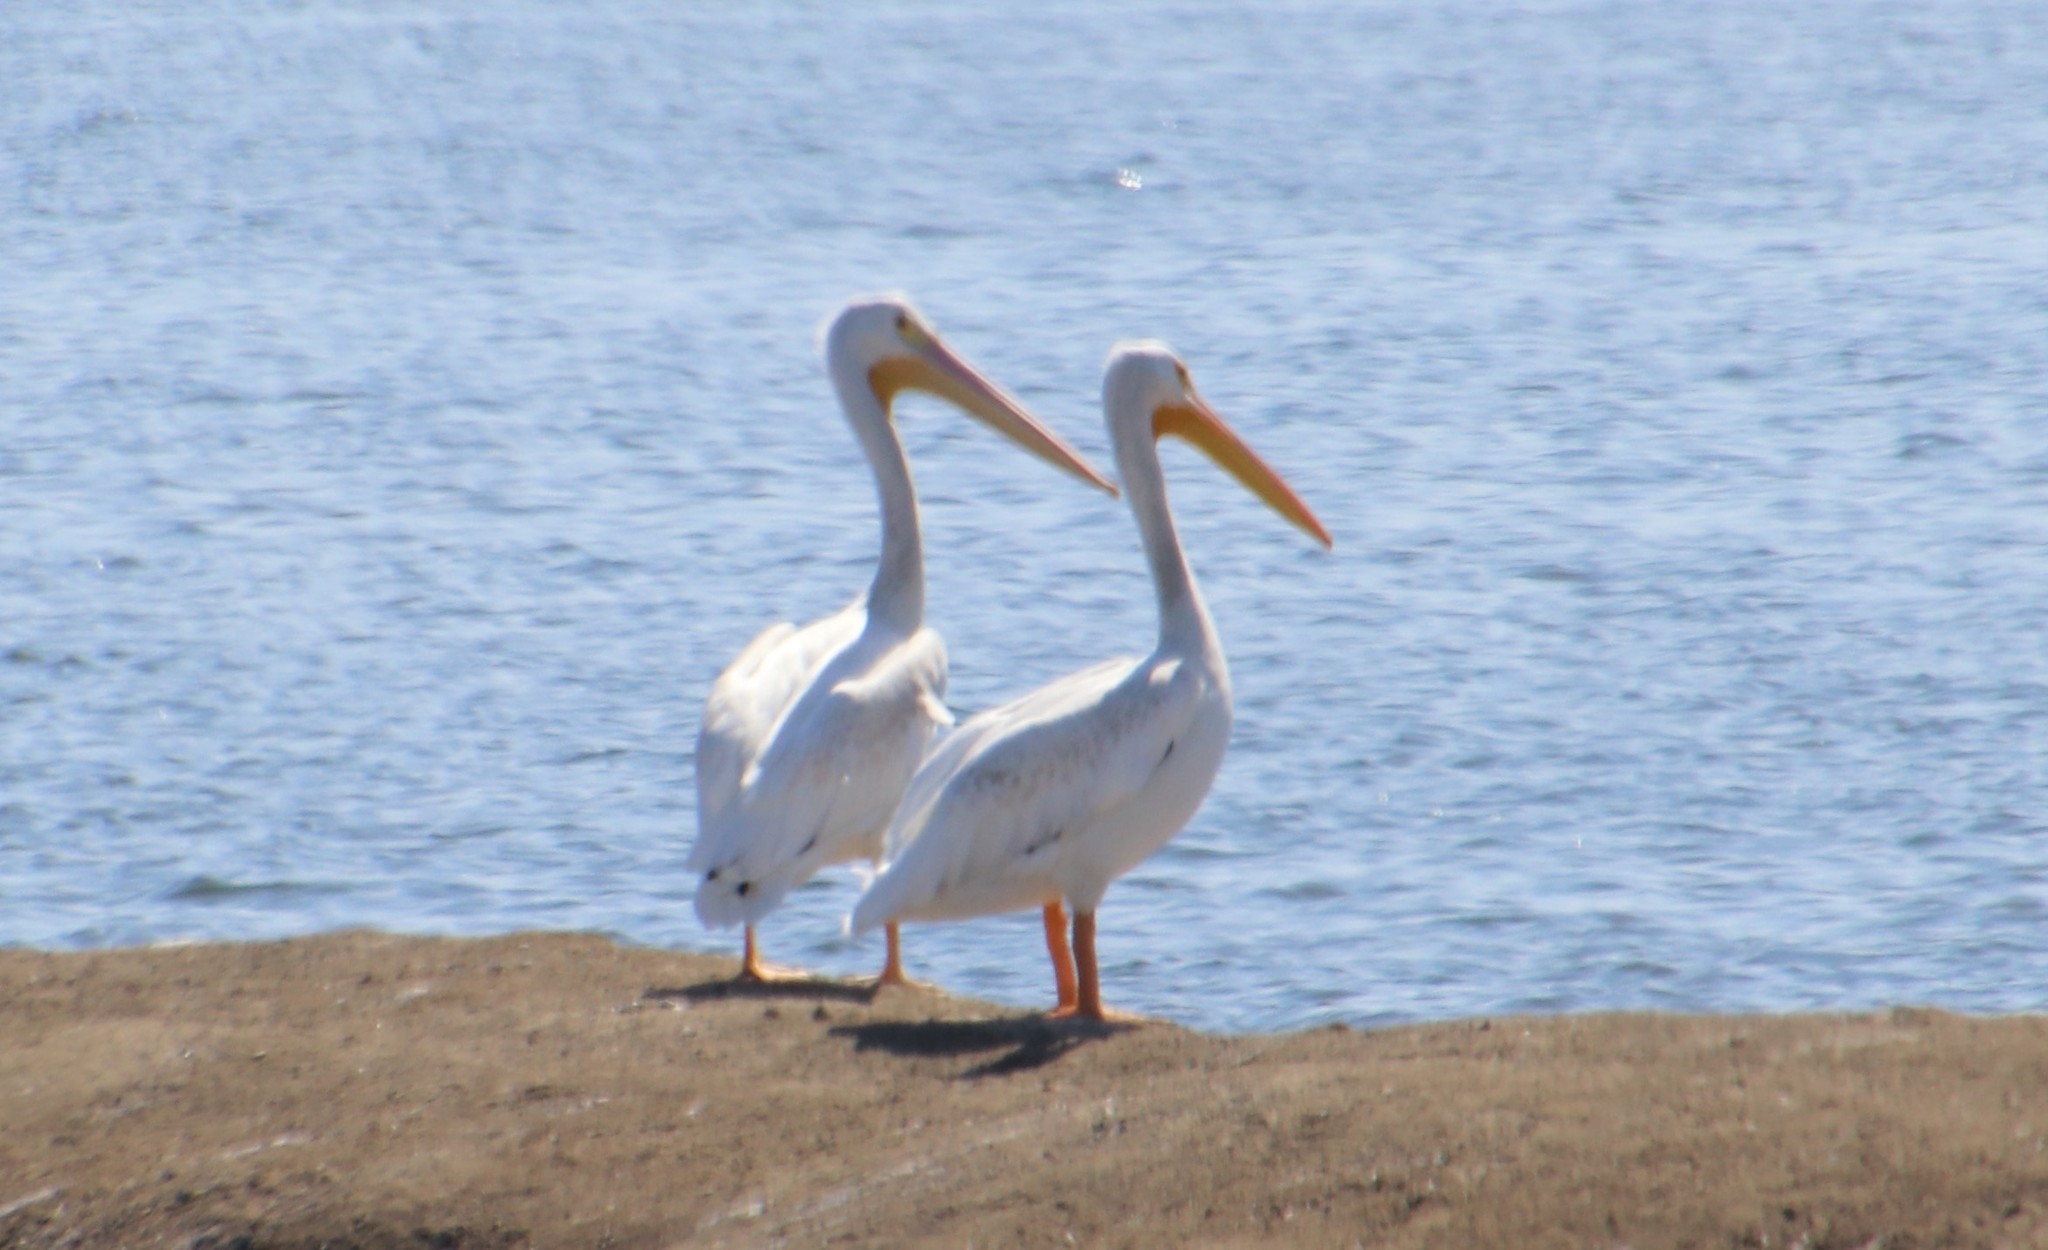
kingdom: Animalia
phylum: Chordata
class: Aves
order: Pelecaniformes
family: Pelecanidae
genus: Pelecanus
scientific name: Pelecanus erythrorhynchos
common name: American white pelican
